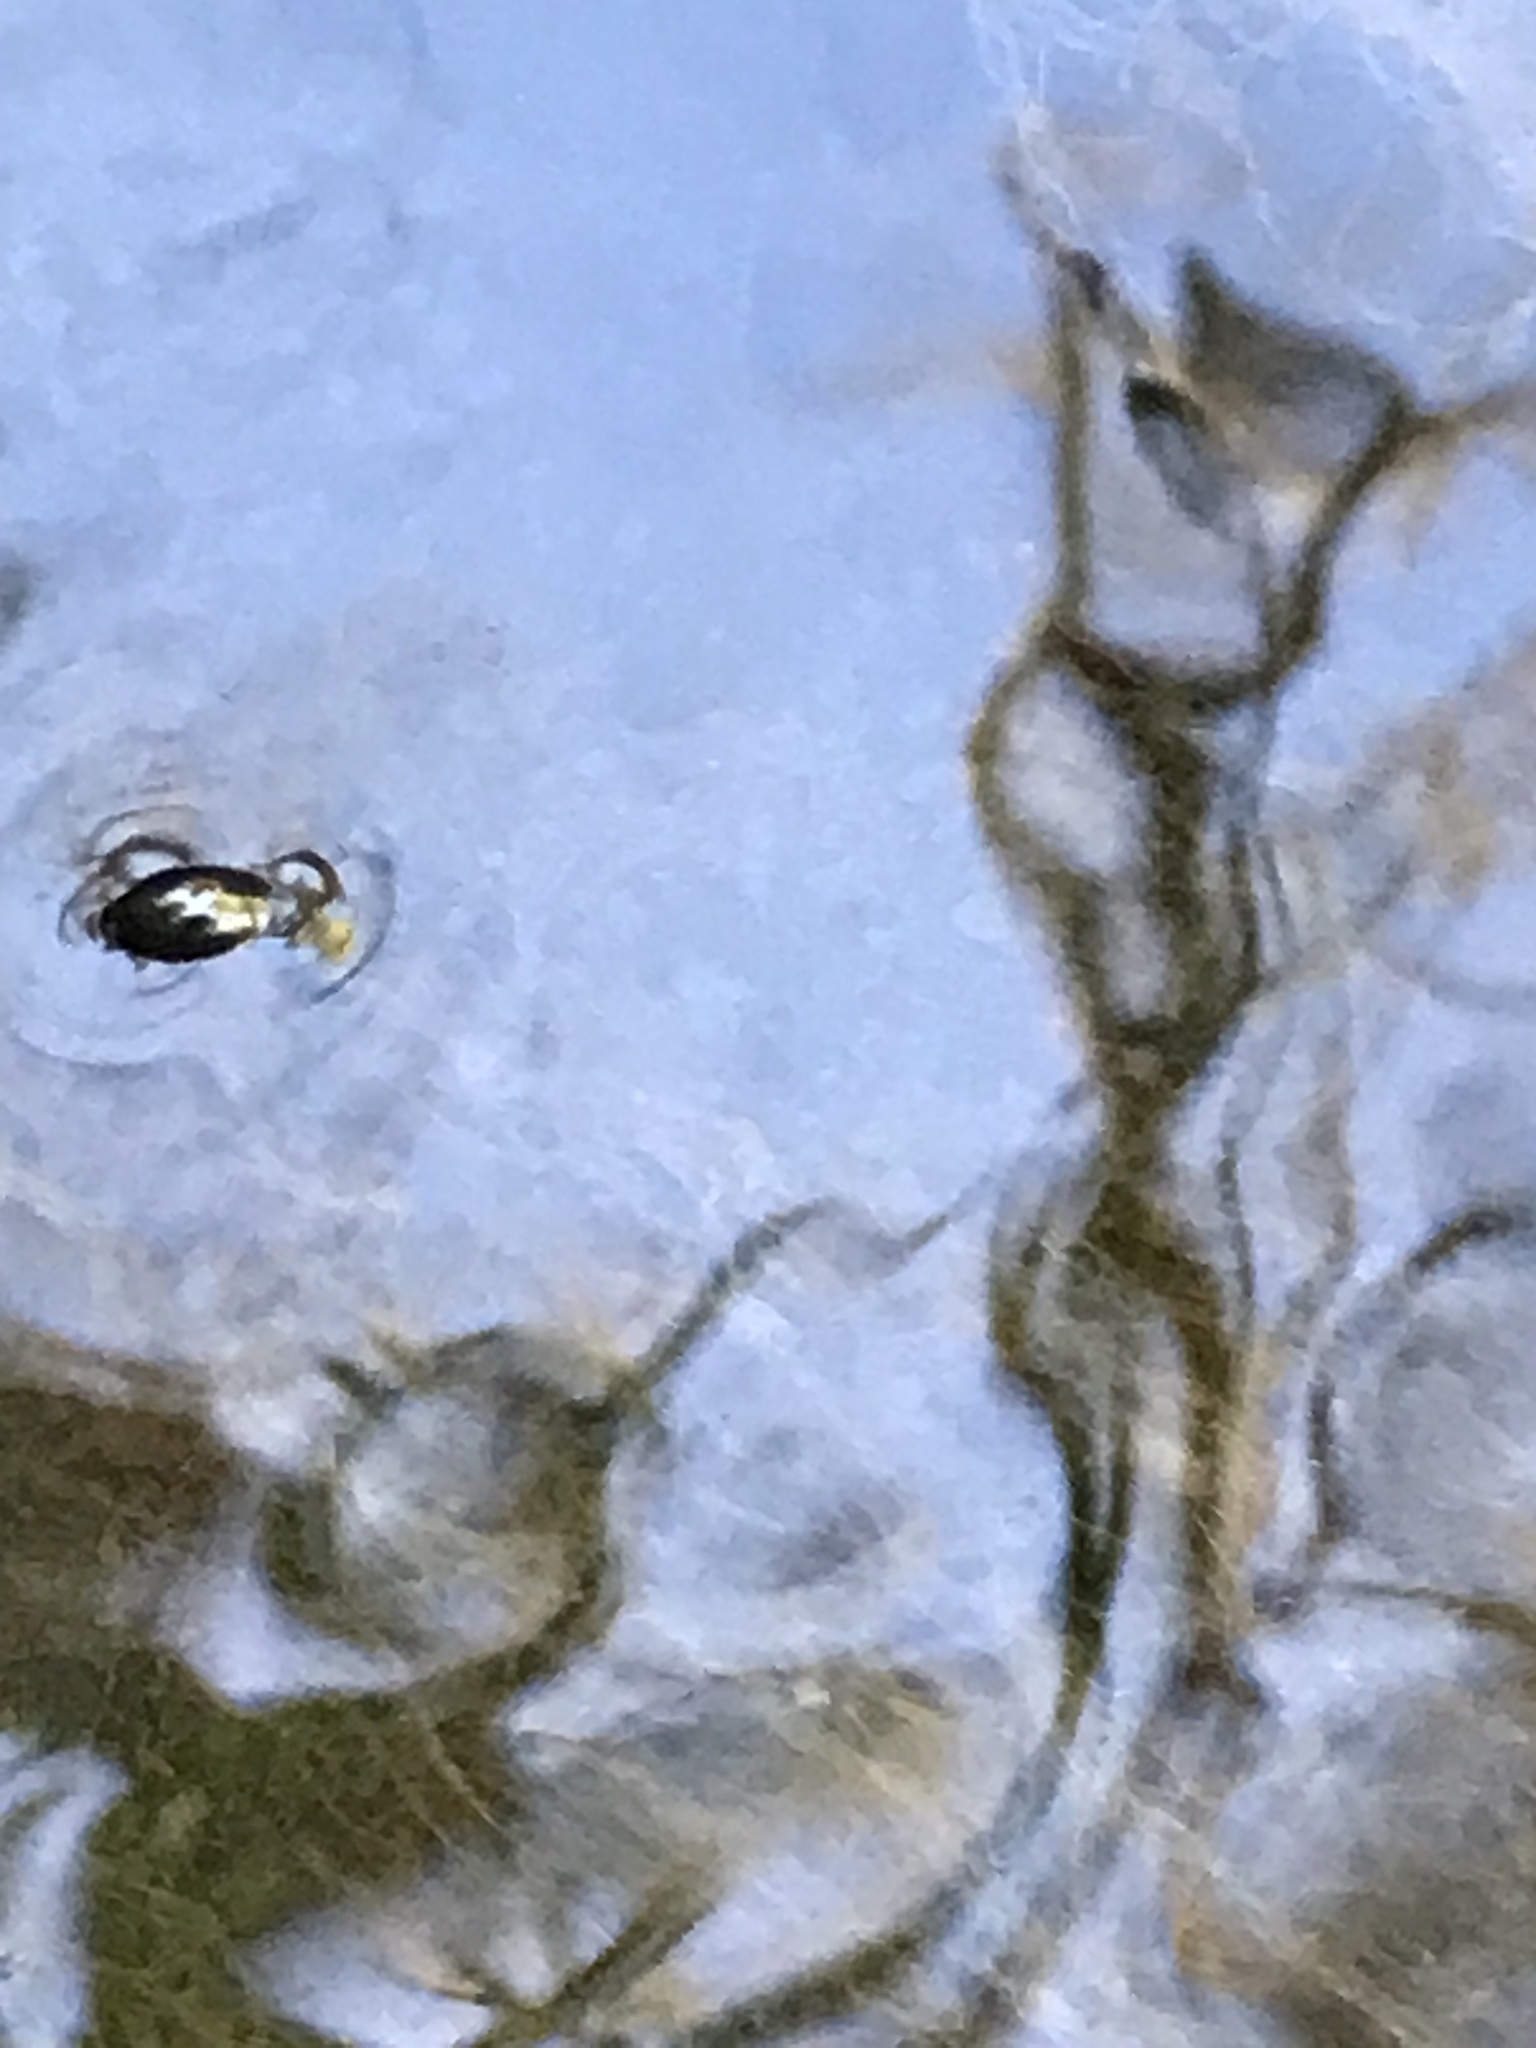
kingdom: Animalia
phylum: Arthropoda
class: Insecta
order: Coleoptera
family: Gyrinidae
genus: Gyrinus
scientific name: Gyrinus
